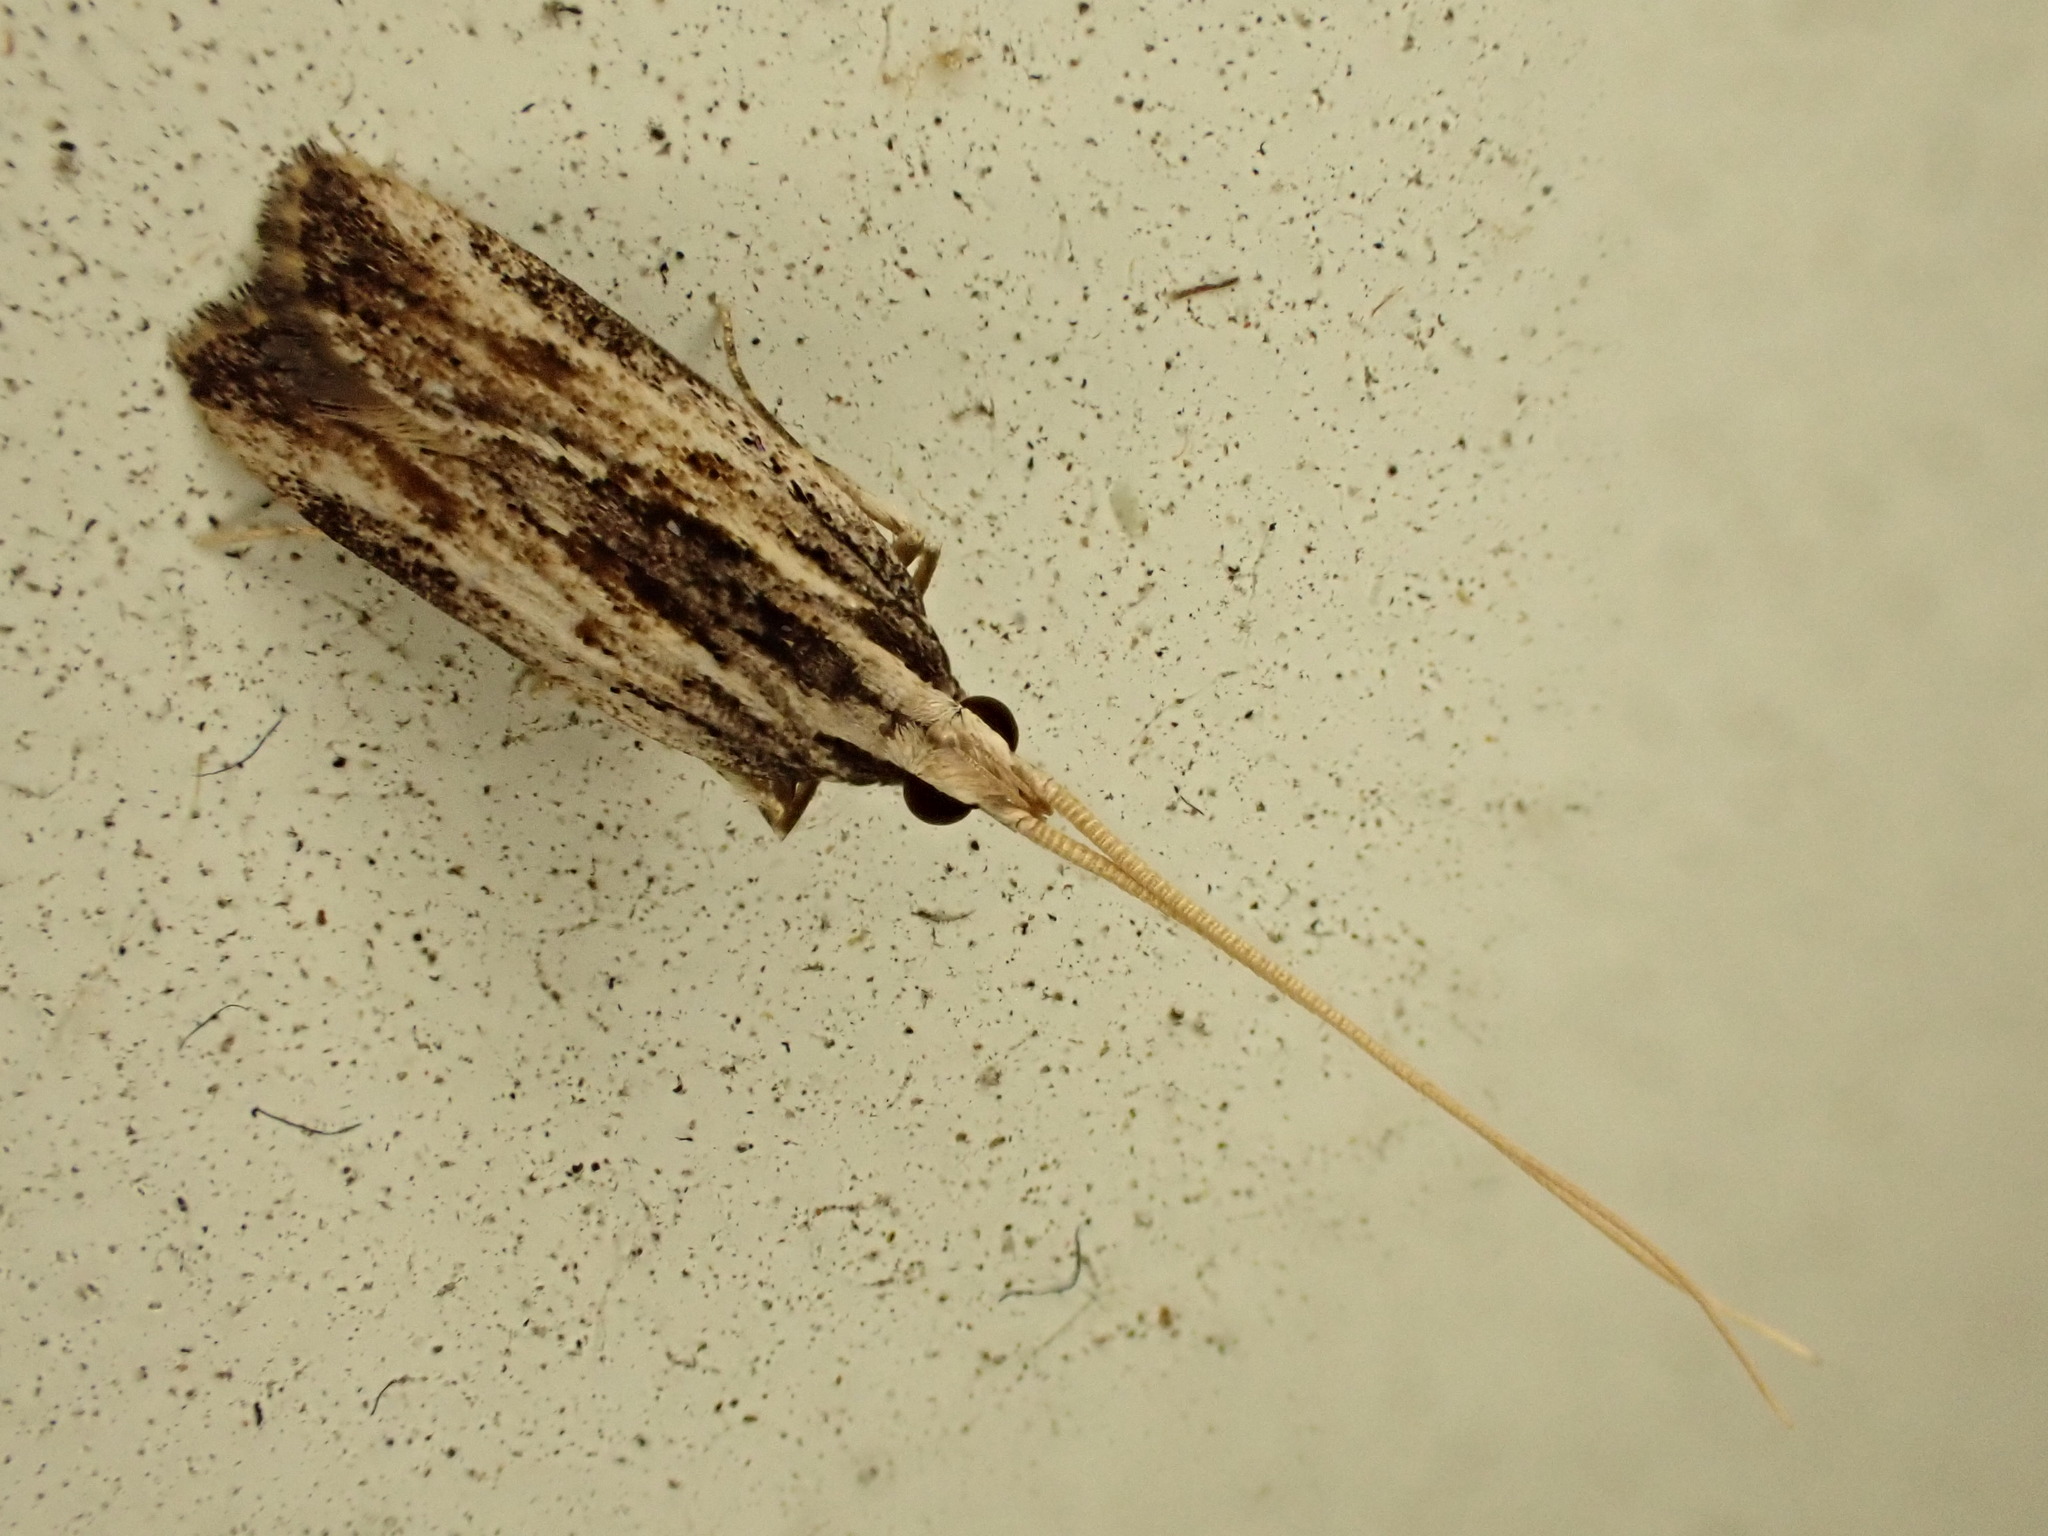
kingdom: Animalia
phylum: Arthropoda
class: Insecta
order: Lepidoptera
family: Lecithoceridae
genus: Sarisophora
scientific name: Sarisophora leucoscia
